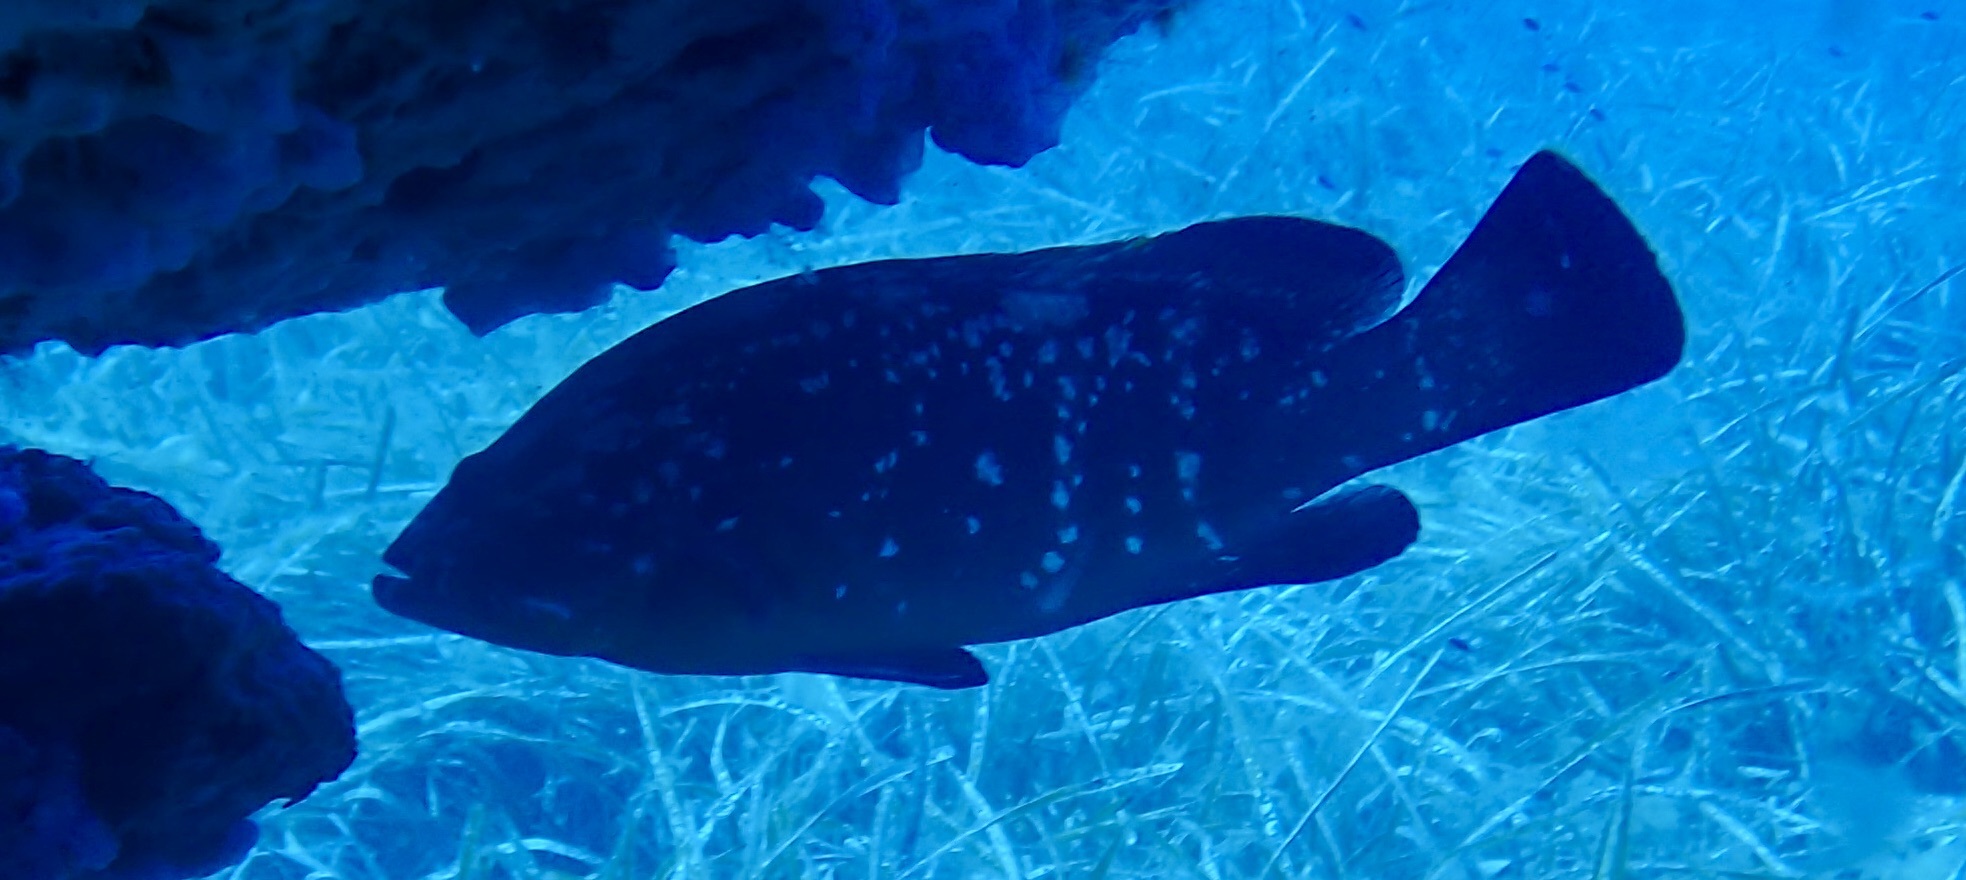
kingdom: Animalia
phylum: Chordata
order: Perciformes
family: Serranidae
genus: Epinephelus
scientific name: Epinephelus marginatus
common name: Dusky grouper
